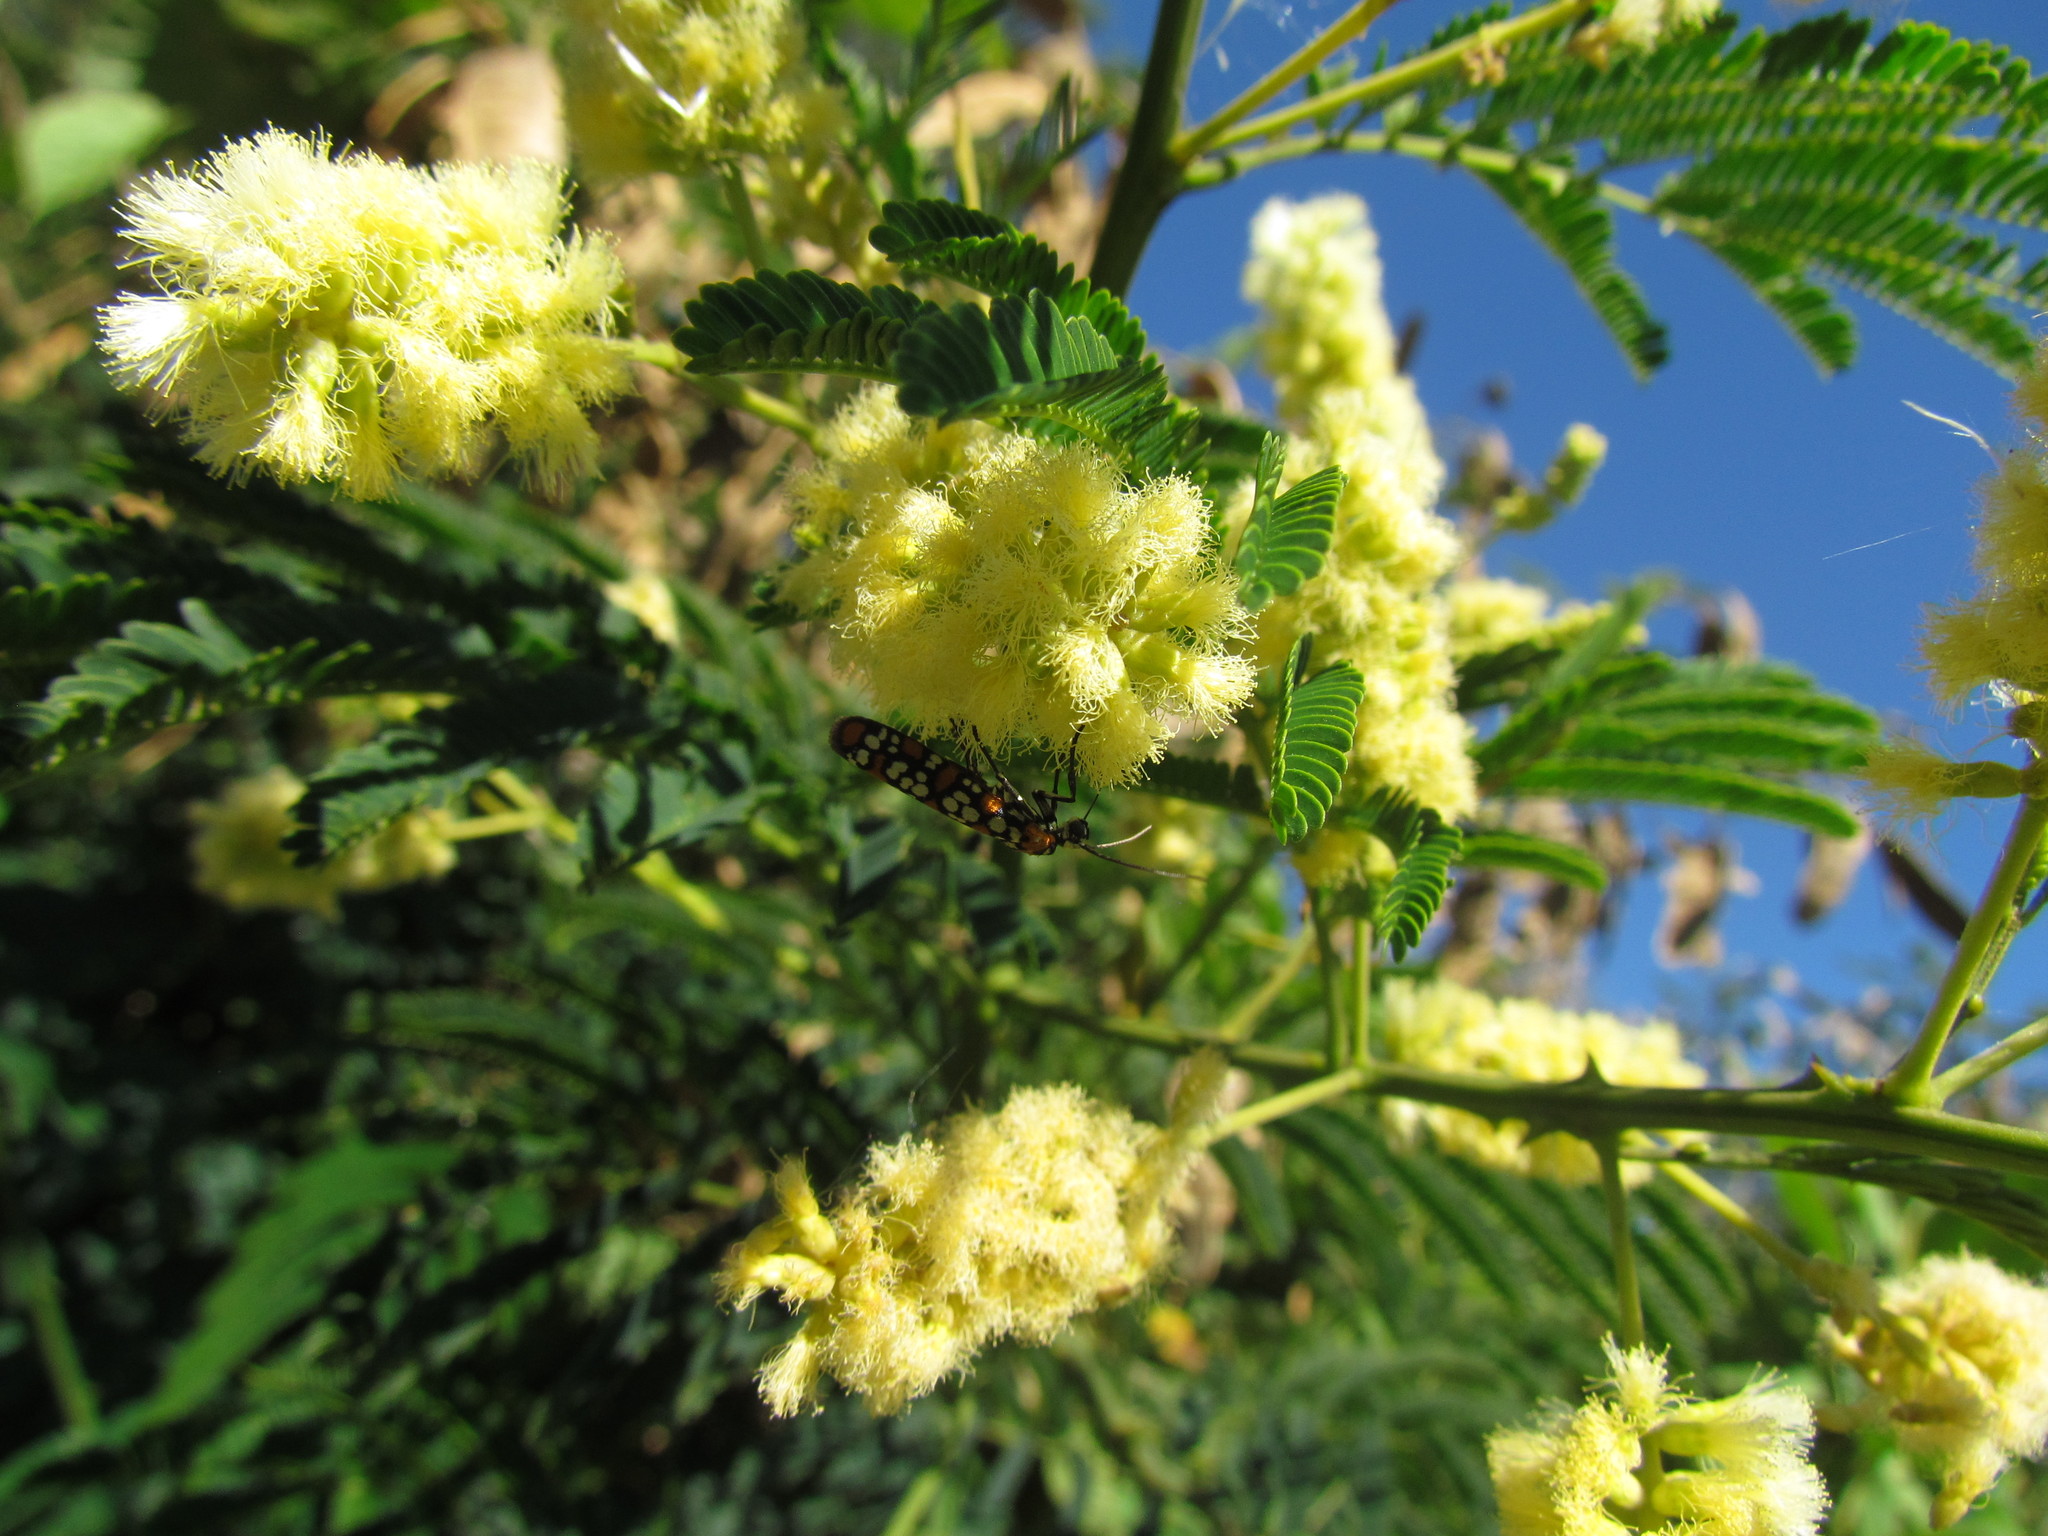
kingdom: Animalia
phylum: Arthropoda
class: Insecta
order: Lepidoptera
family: Attevidae
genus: Atteva
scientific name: Atteva punctella
